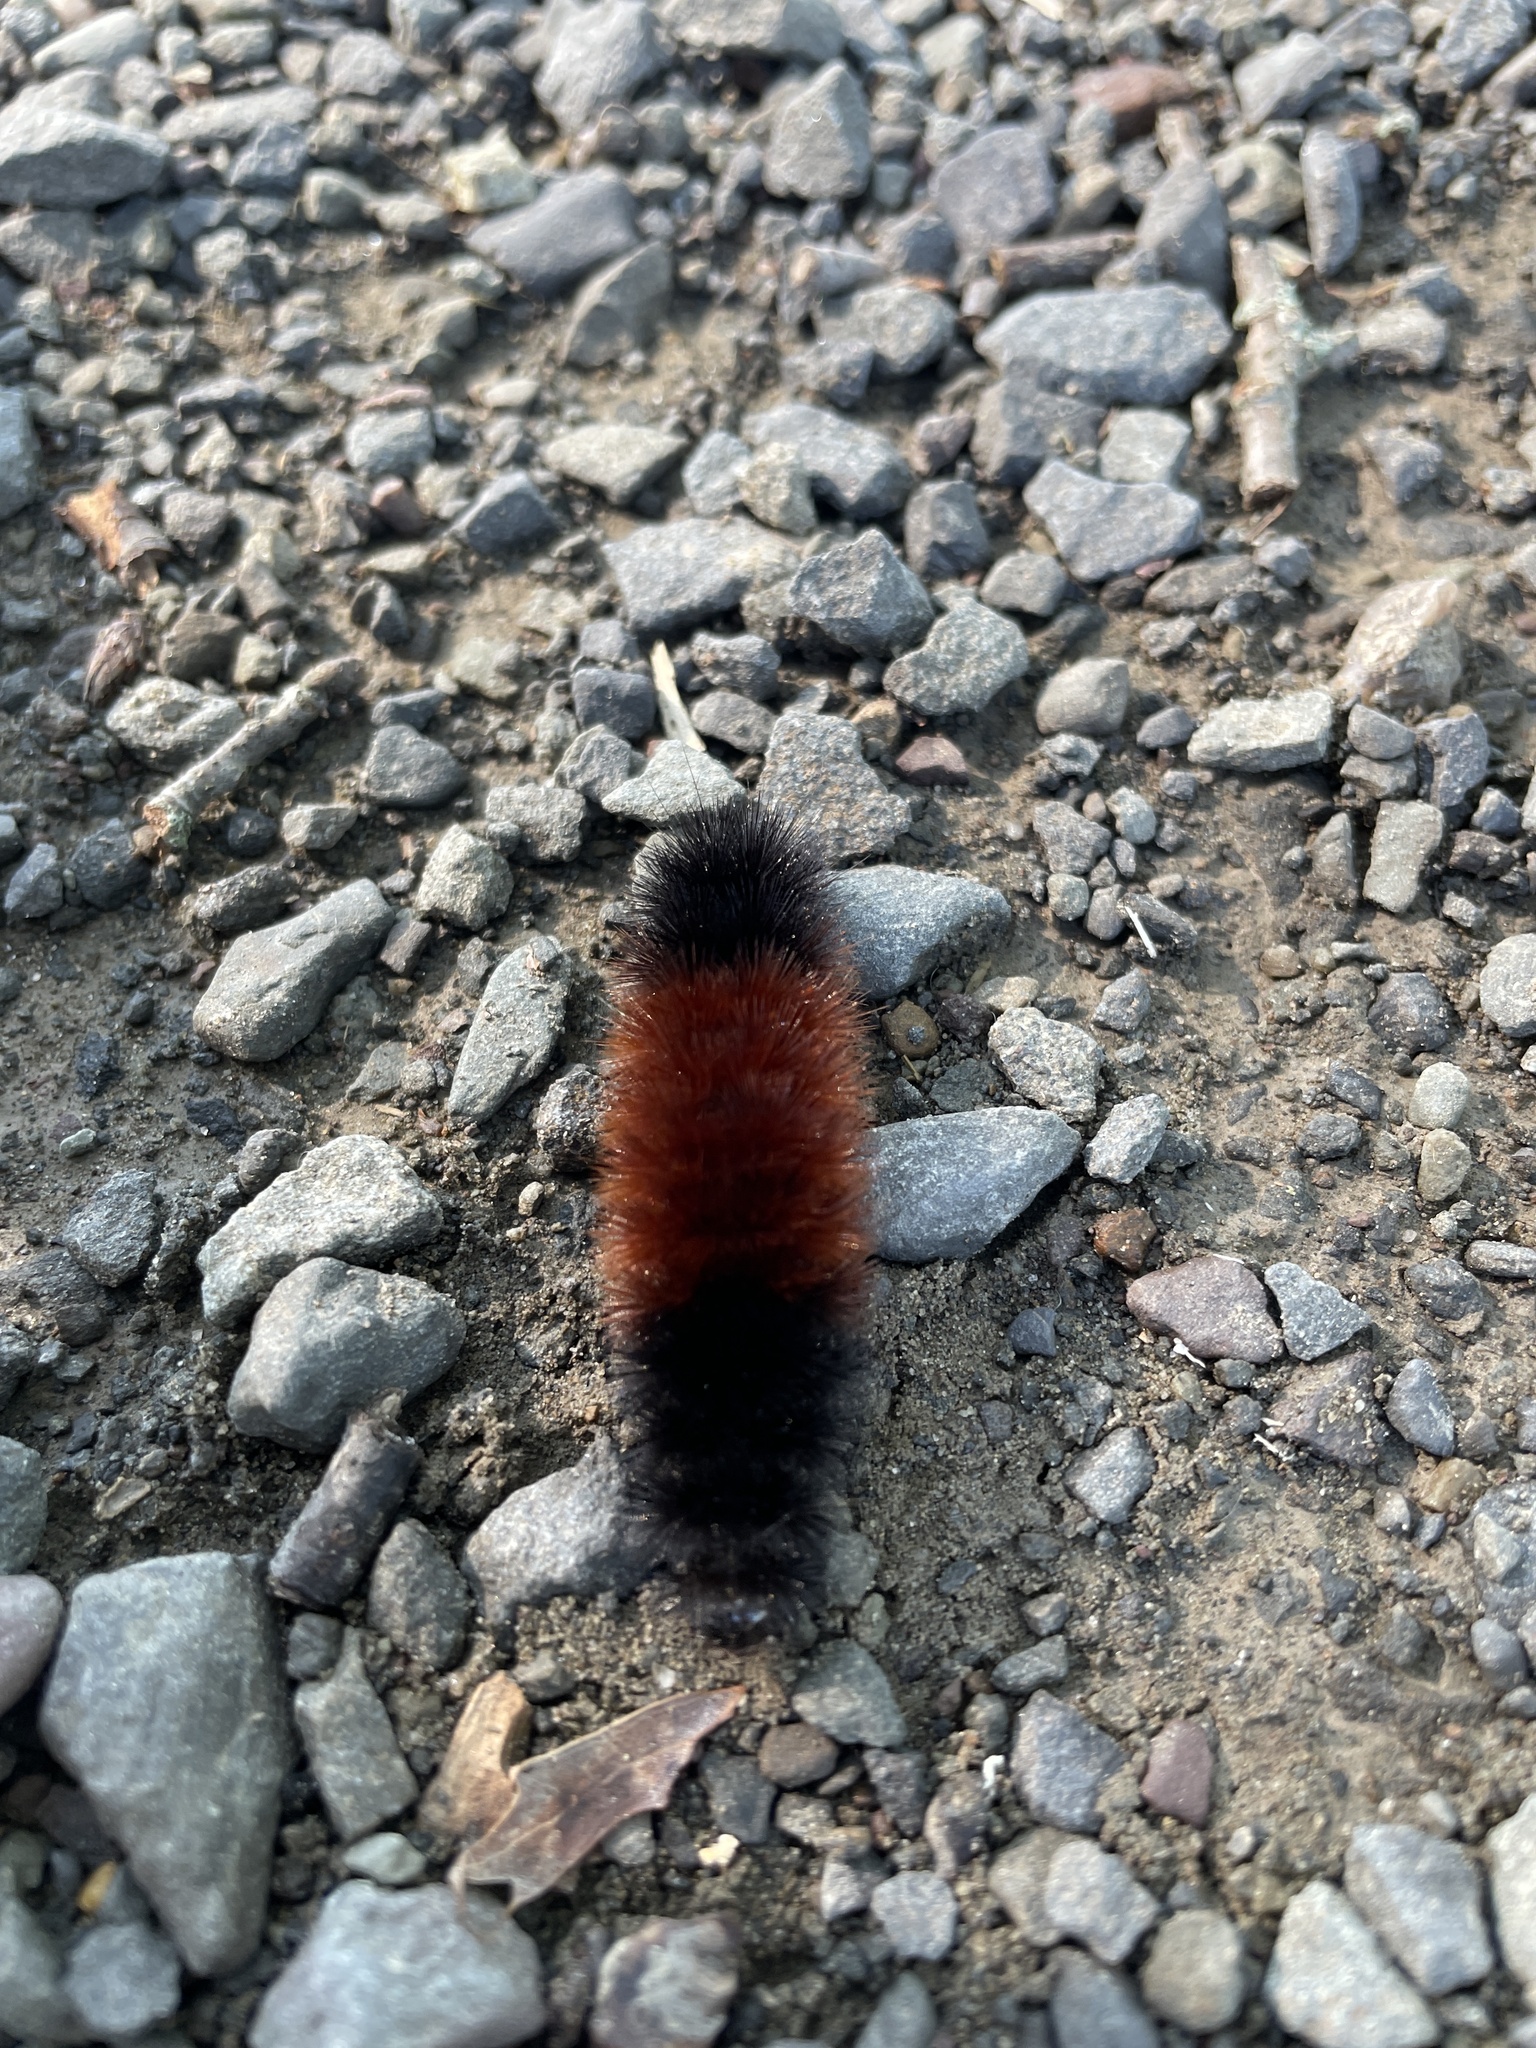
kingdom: Animalia
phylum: Arthropoda
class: Insecta
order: Lepidoptera
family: Erebidae
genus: Pyrrharctia
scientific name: Pyrrharctia isabella
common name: Isabella tiger moth
